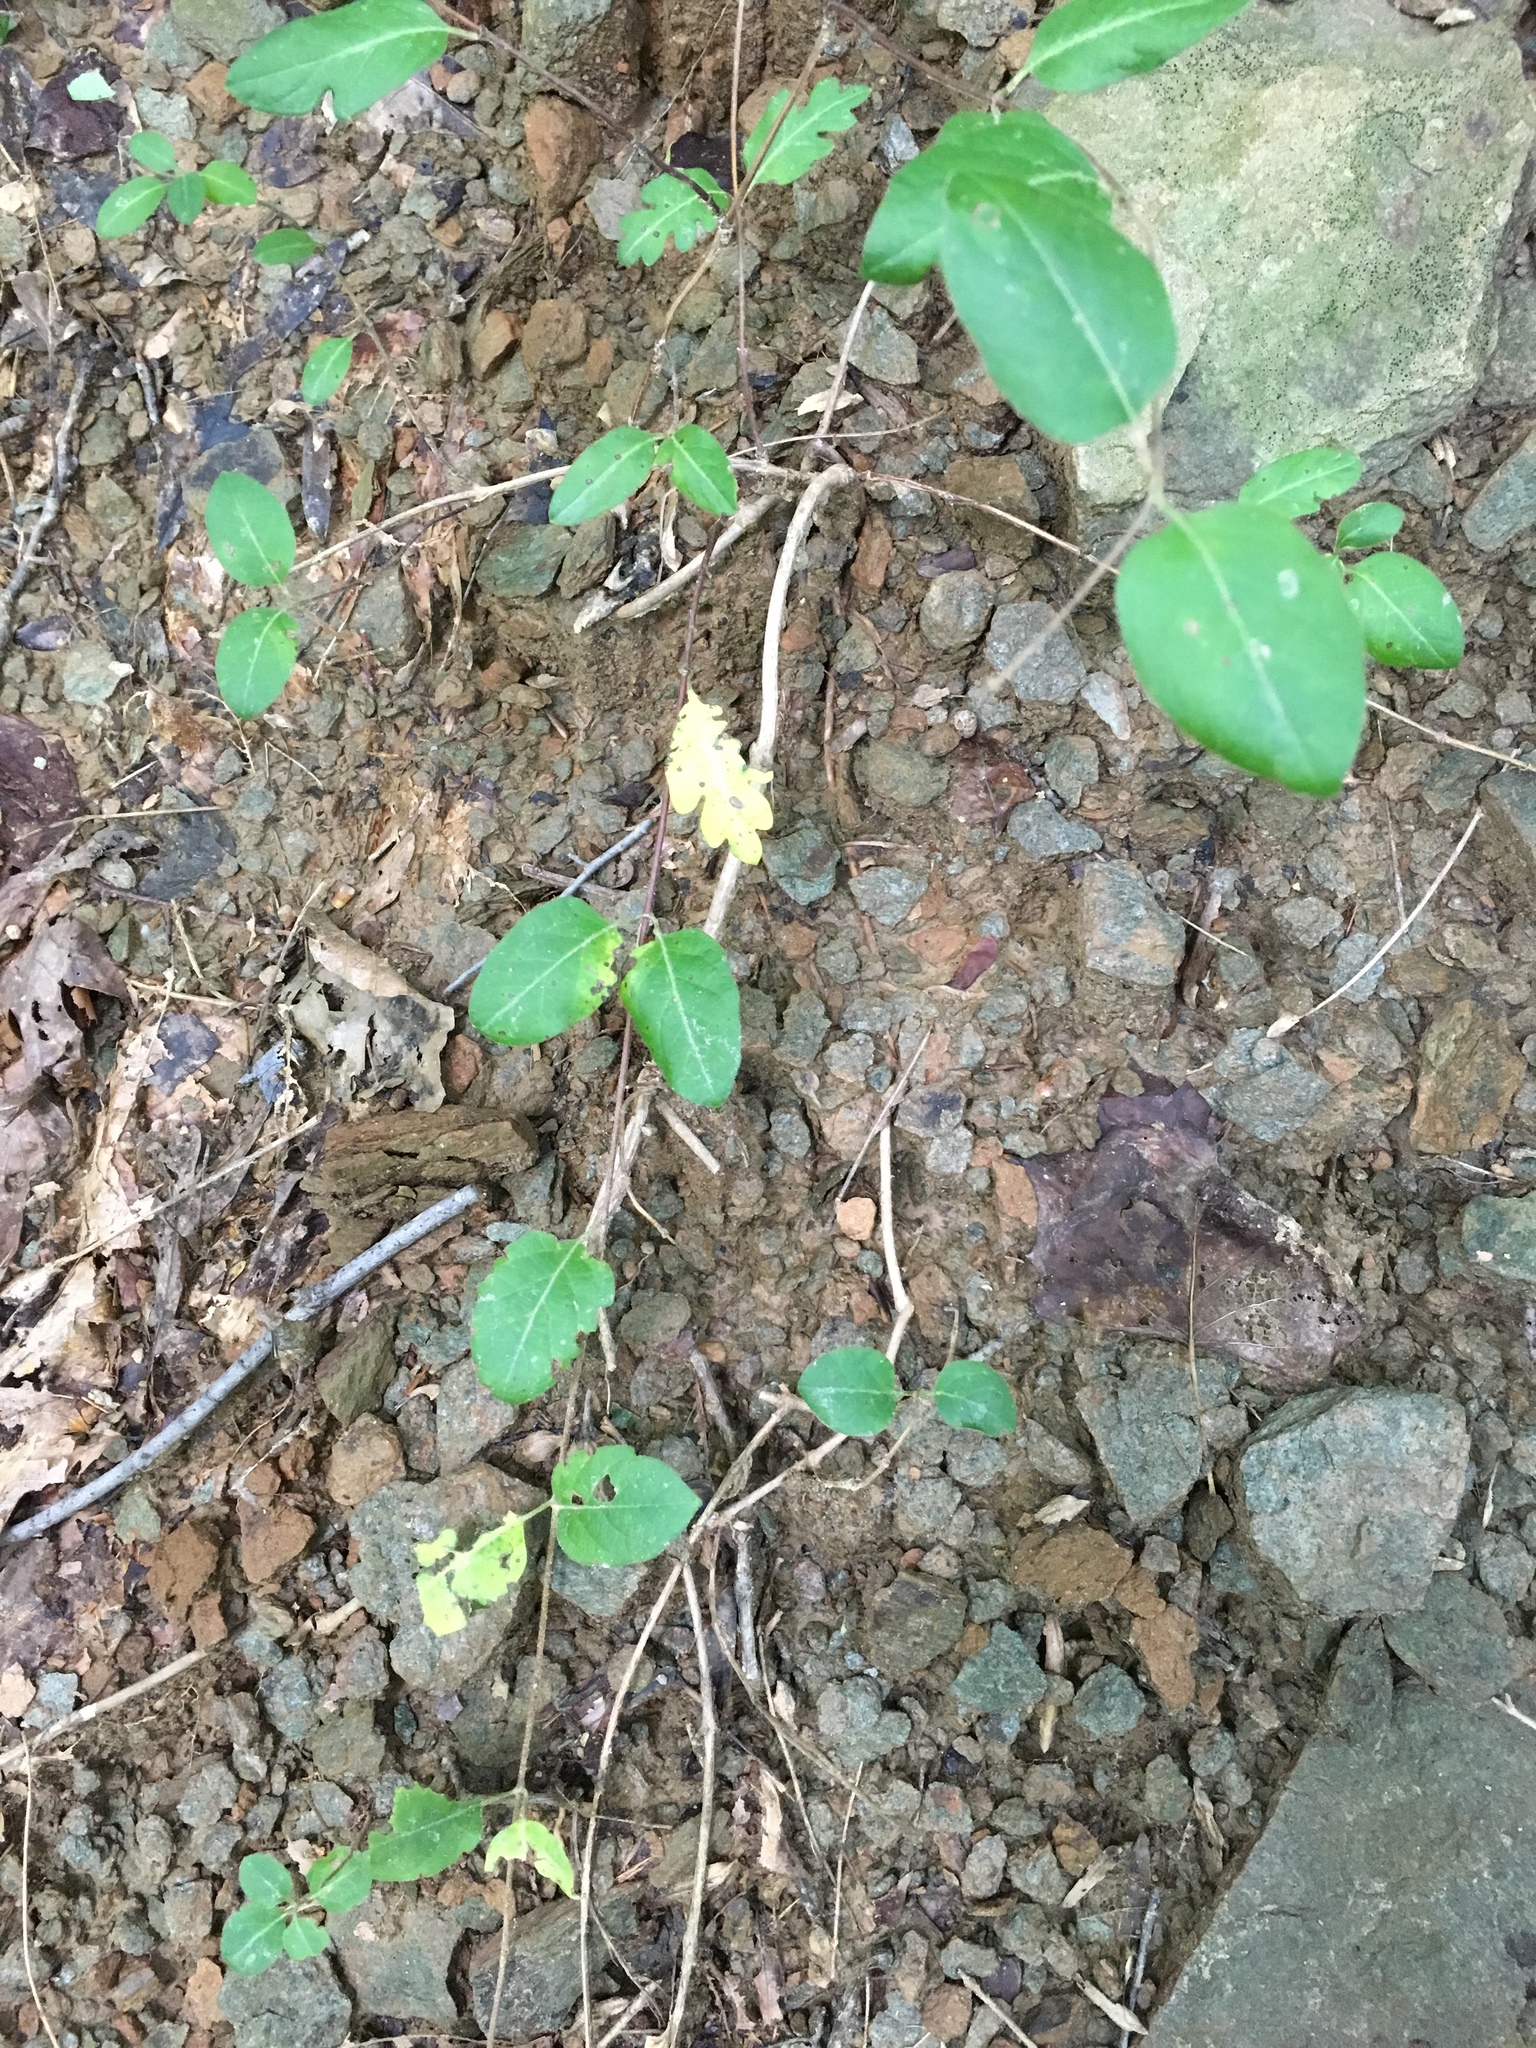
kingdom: Plantae
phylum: Tracheophyta
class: Magnoliopsida
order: Dipsacales
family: Caprifoliaceae
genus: Lonicera
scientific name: Lonicera japonica
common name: Japanese honeysuckle
